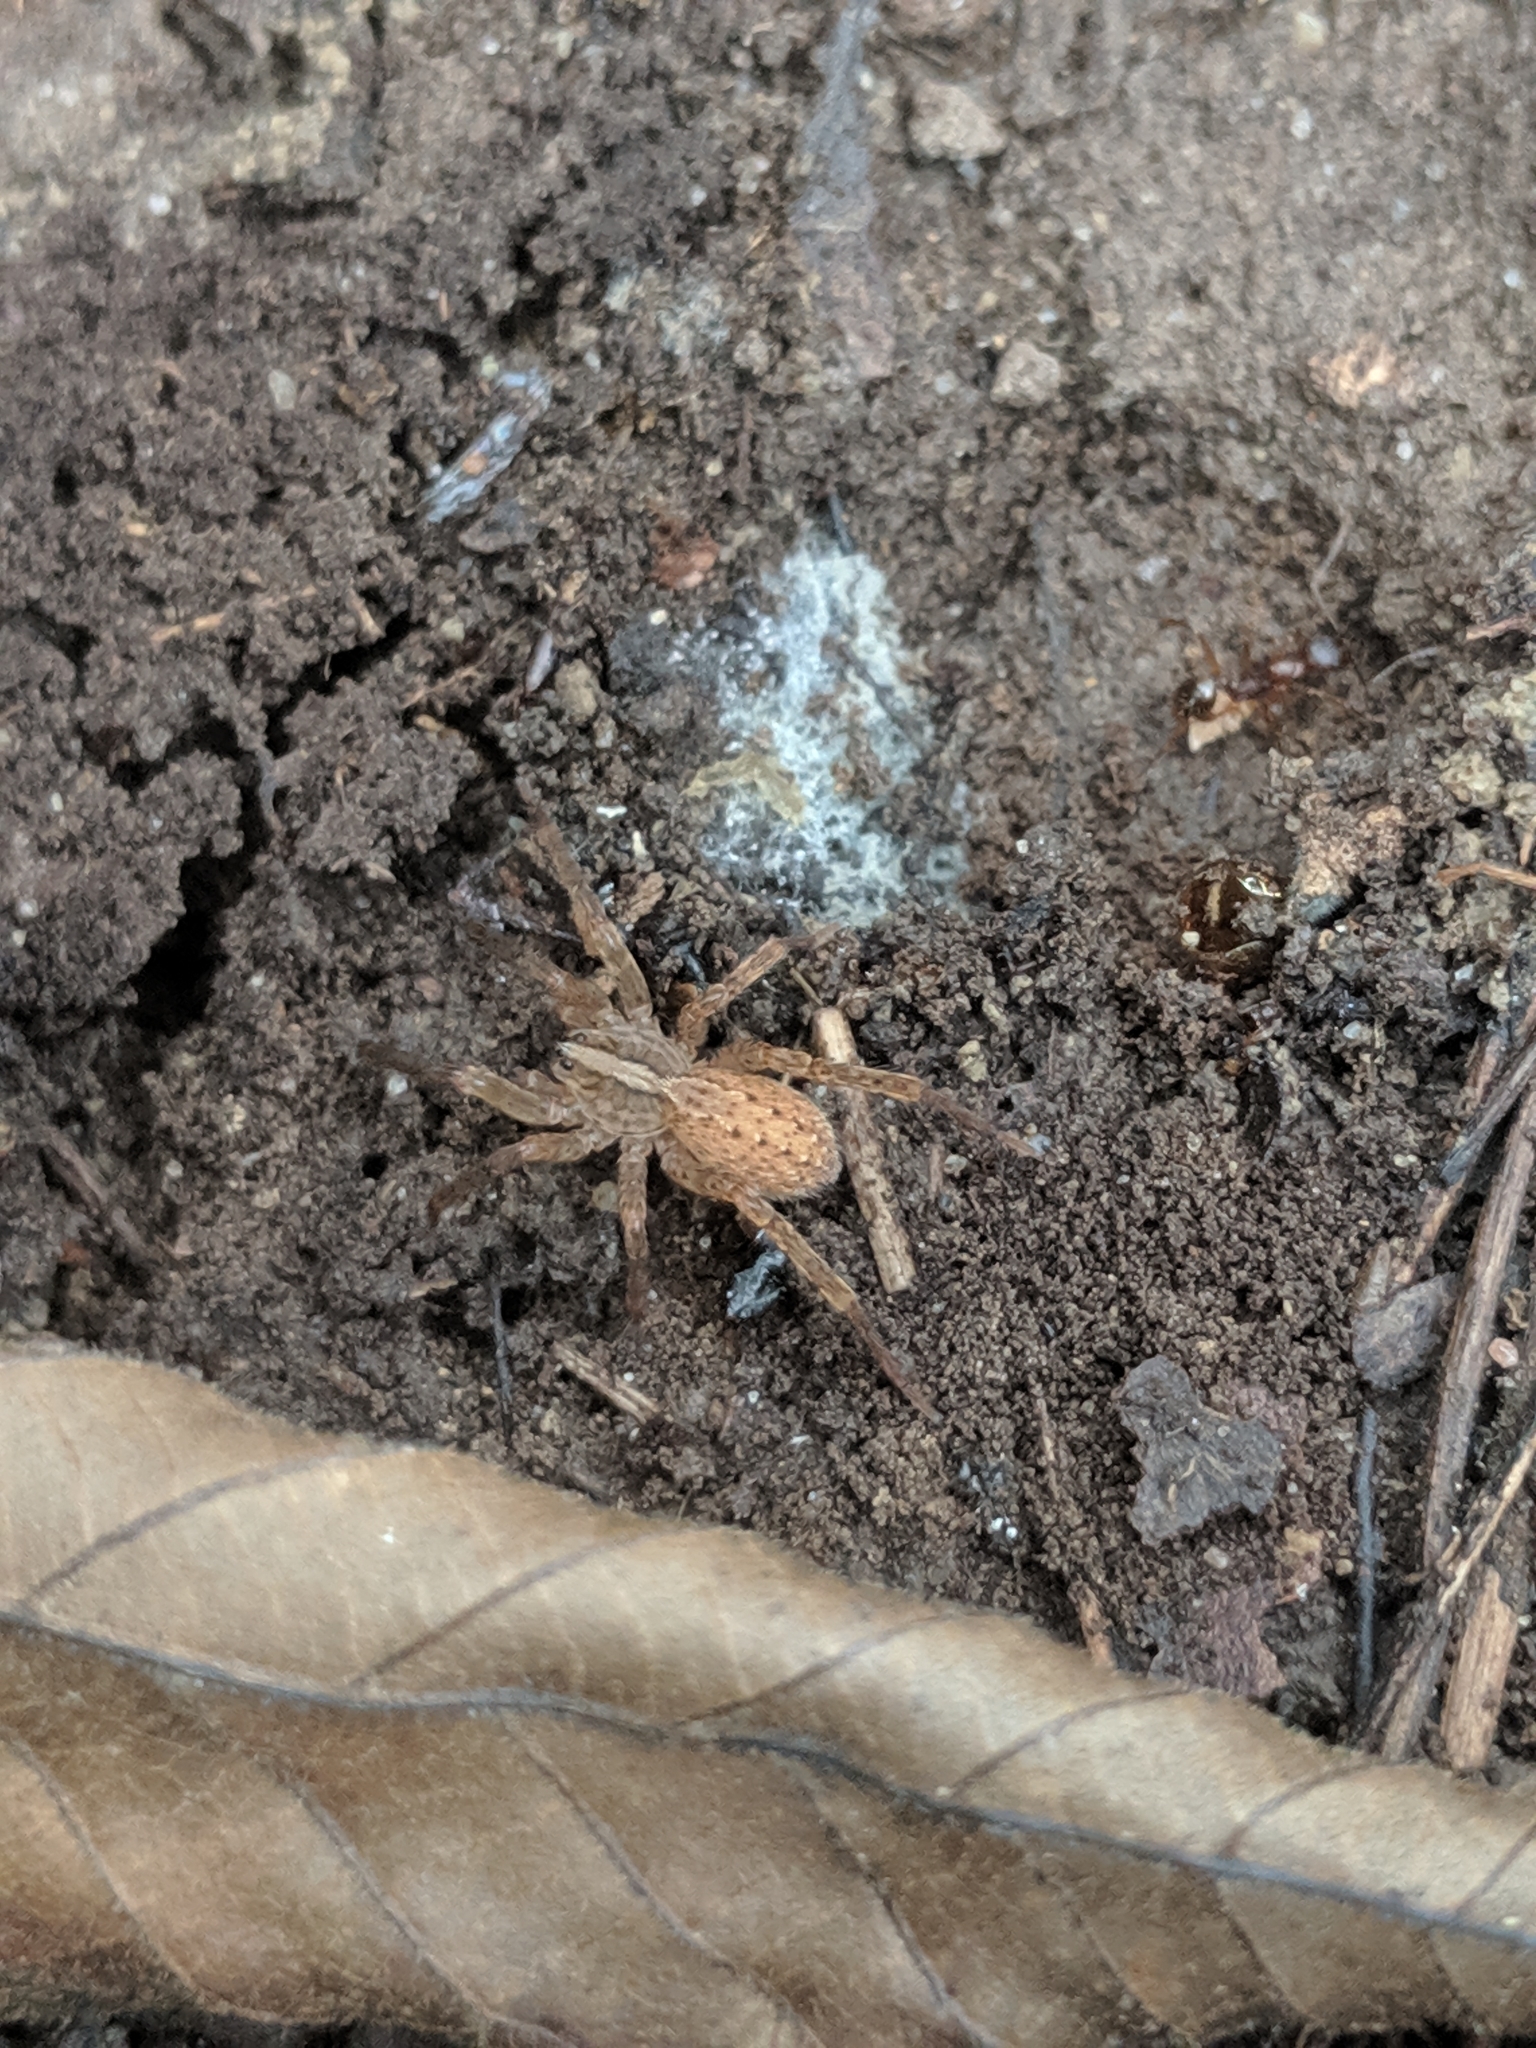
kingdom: Animalia
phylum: Arthropoda
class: Arachnida
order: Araneae
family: Ctenidae
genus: Anahita
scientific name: Anahita punctulata
